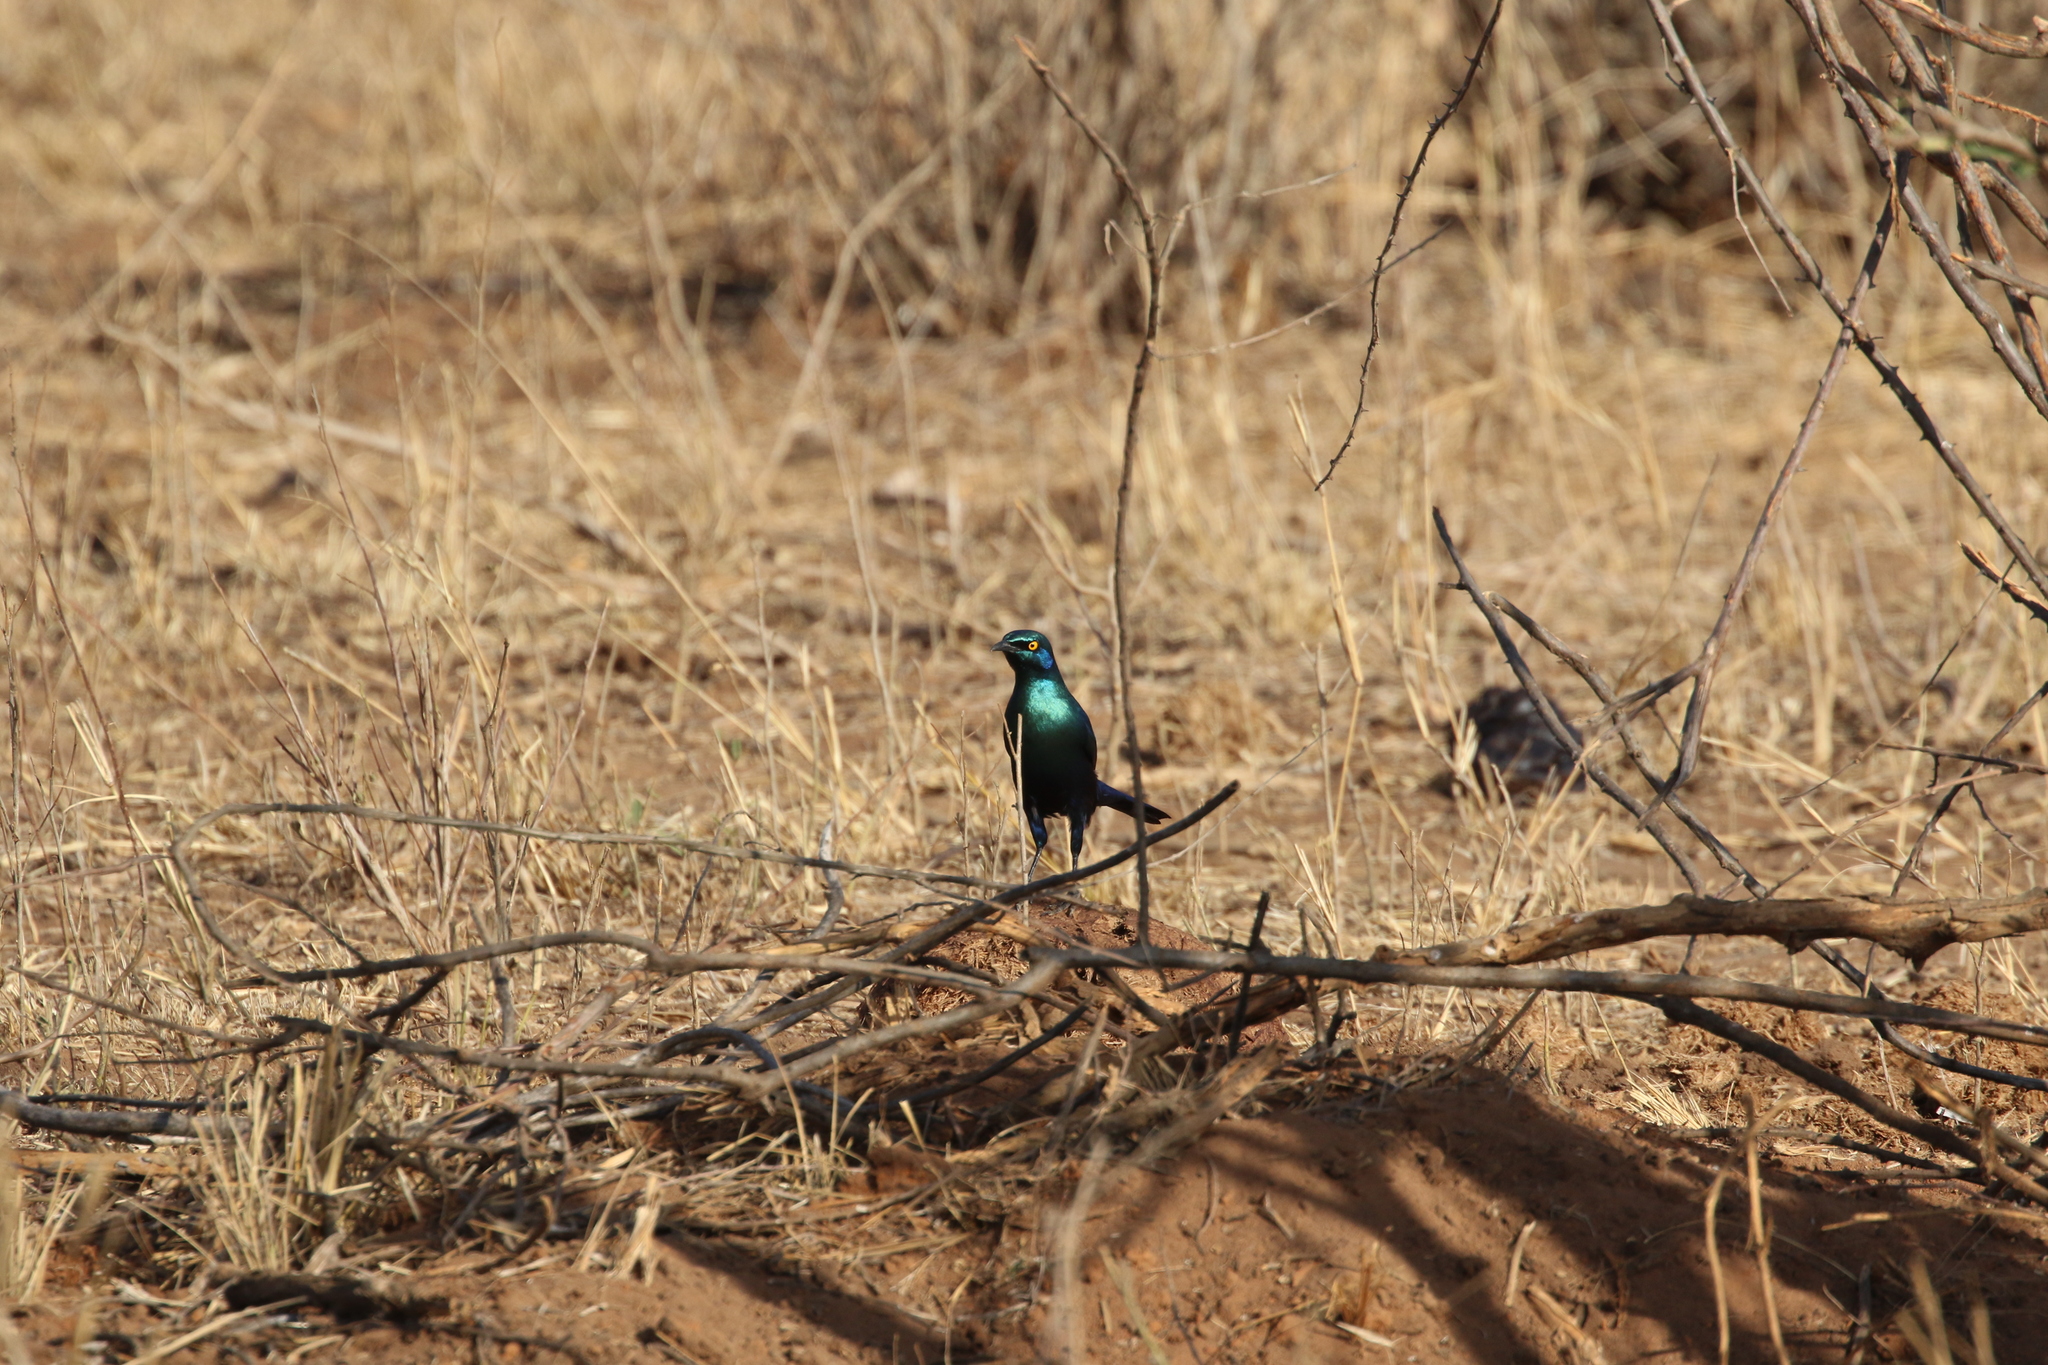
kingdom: Animalia
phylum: Chordata
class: Aves
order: Passeriformes
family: Sturnidae
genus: Lamprotornis
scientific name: Lamprotornis chalybaeus
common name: Greater blue-eared starling
